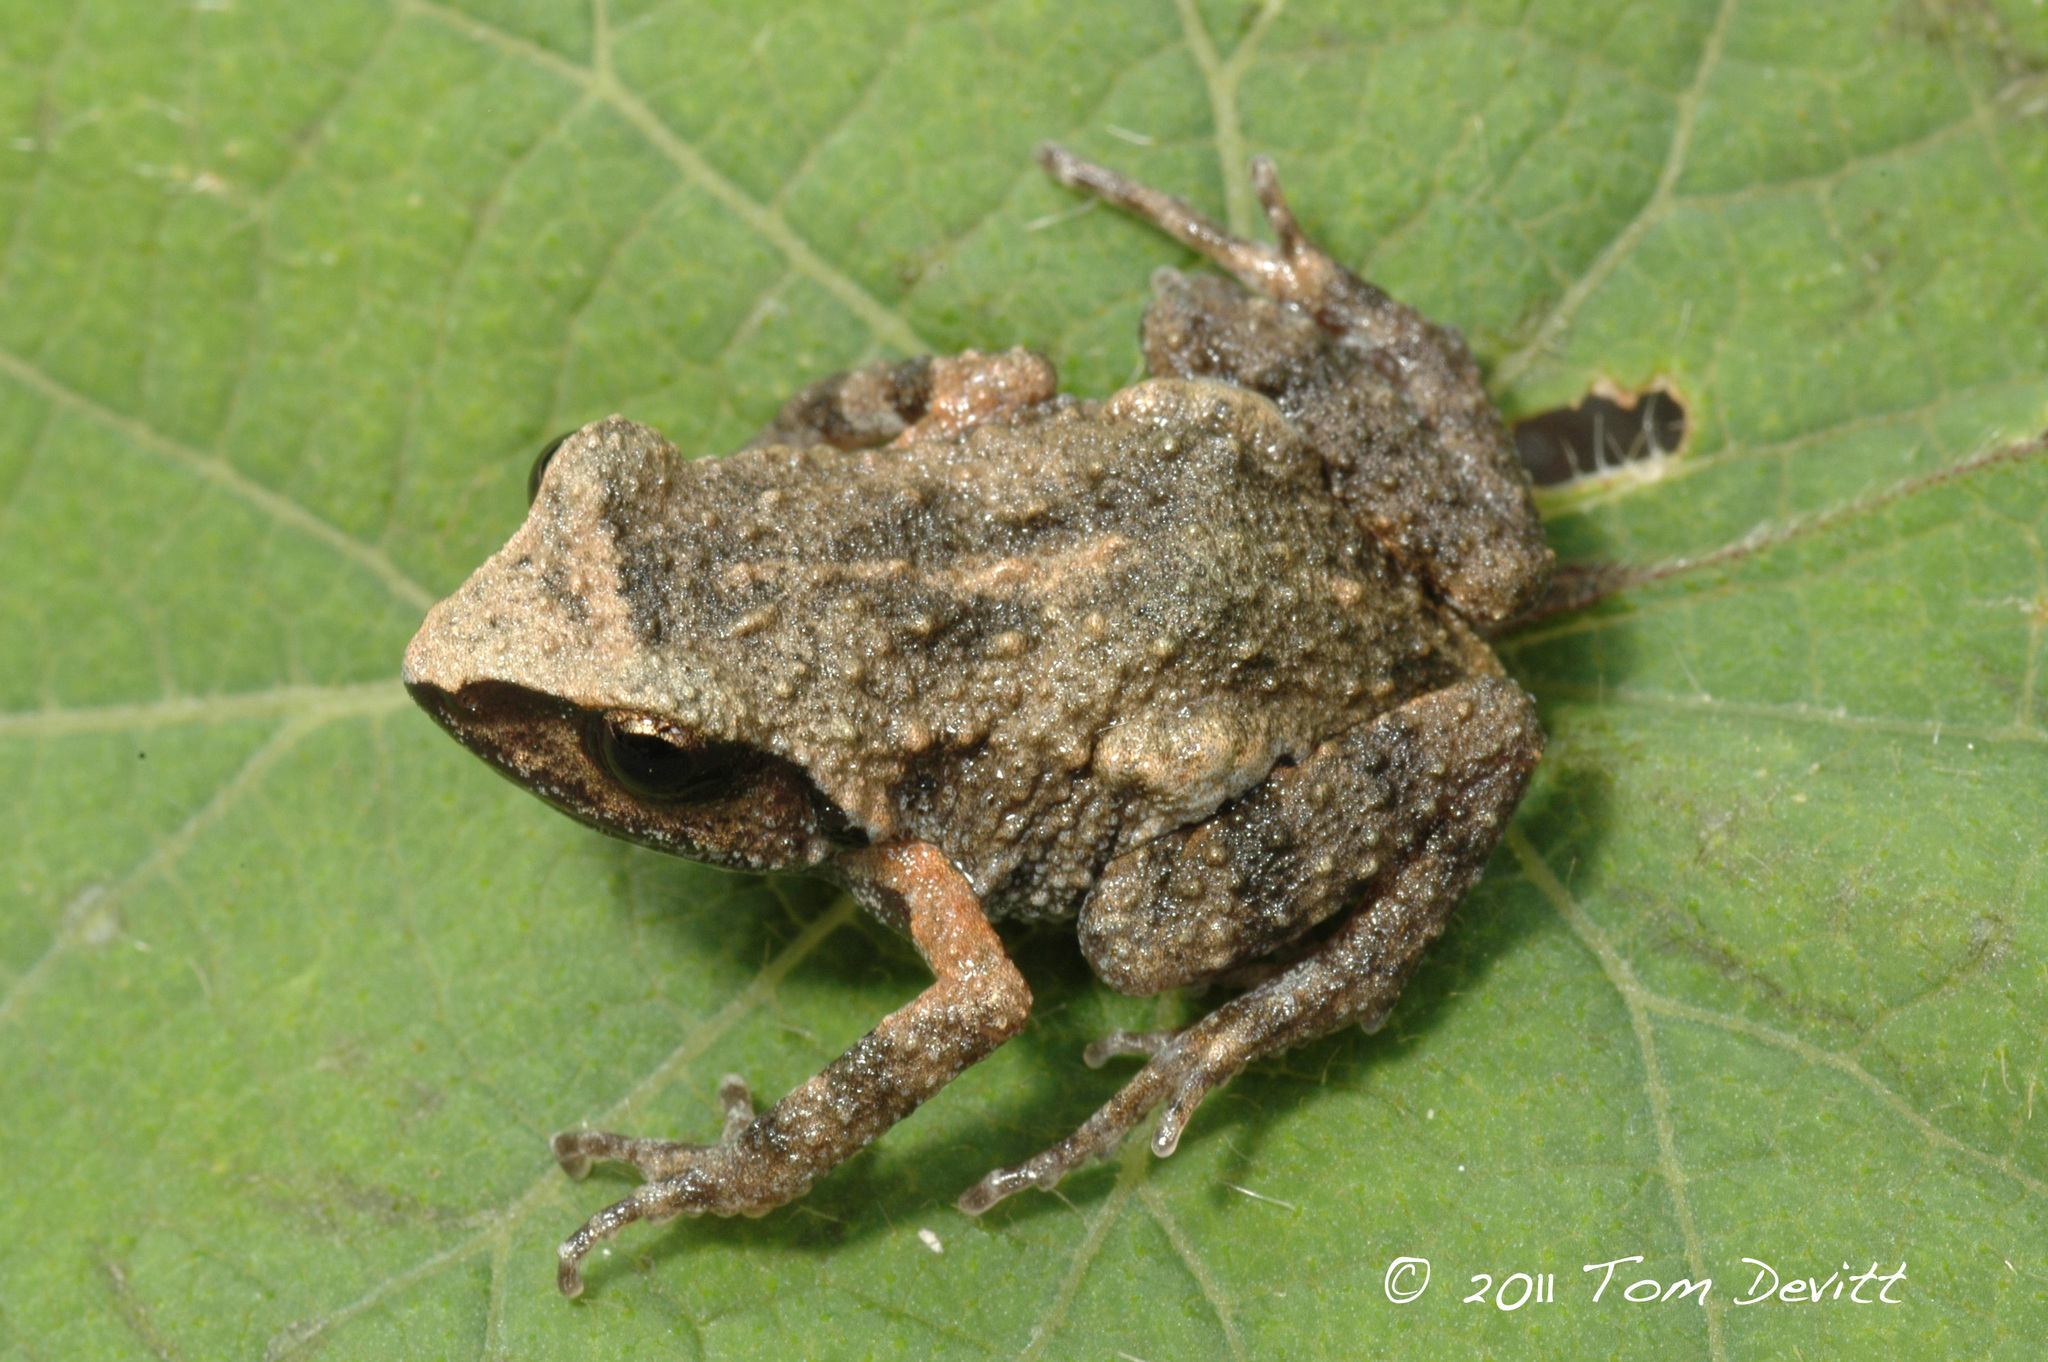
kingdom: Animalia
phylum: Chordata
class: Amphibia
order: Anura
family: Eleutherodactylidae
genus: Eleutherodactylus
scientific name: Eleutherodactylus maurus
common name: Dusky chirping frog
